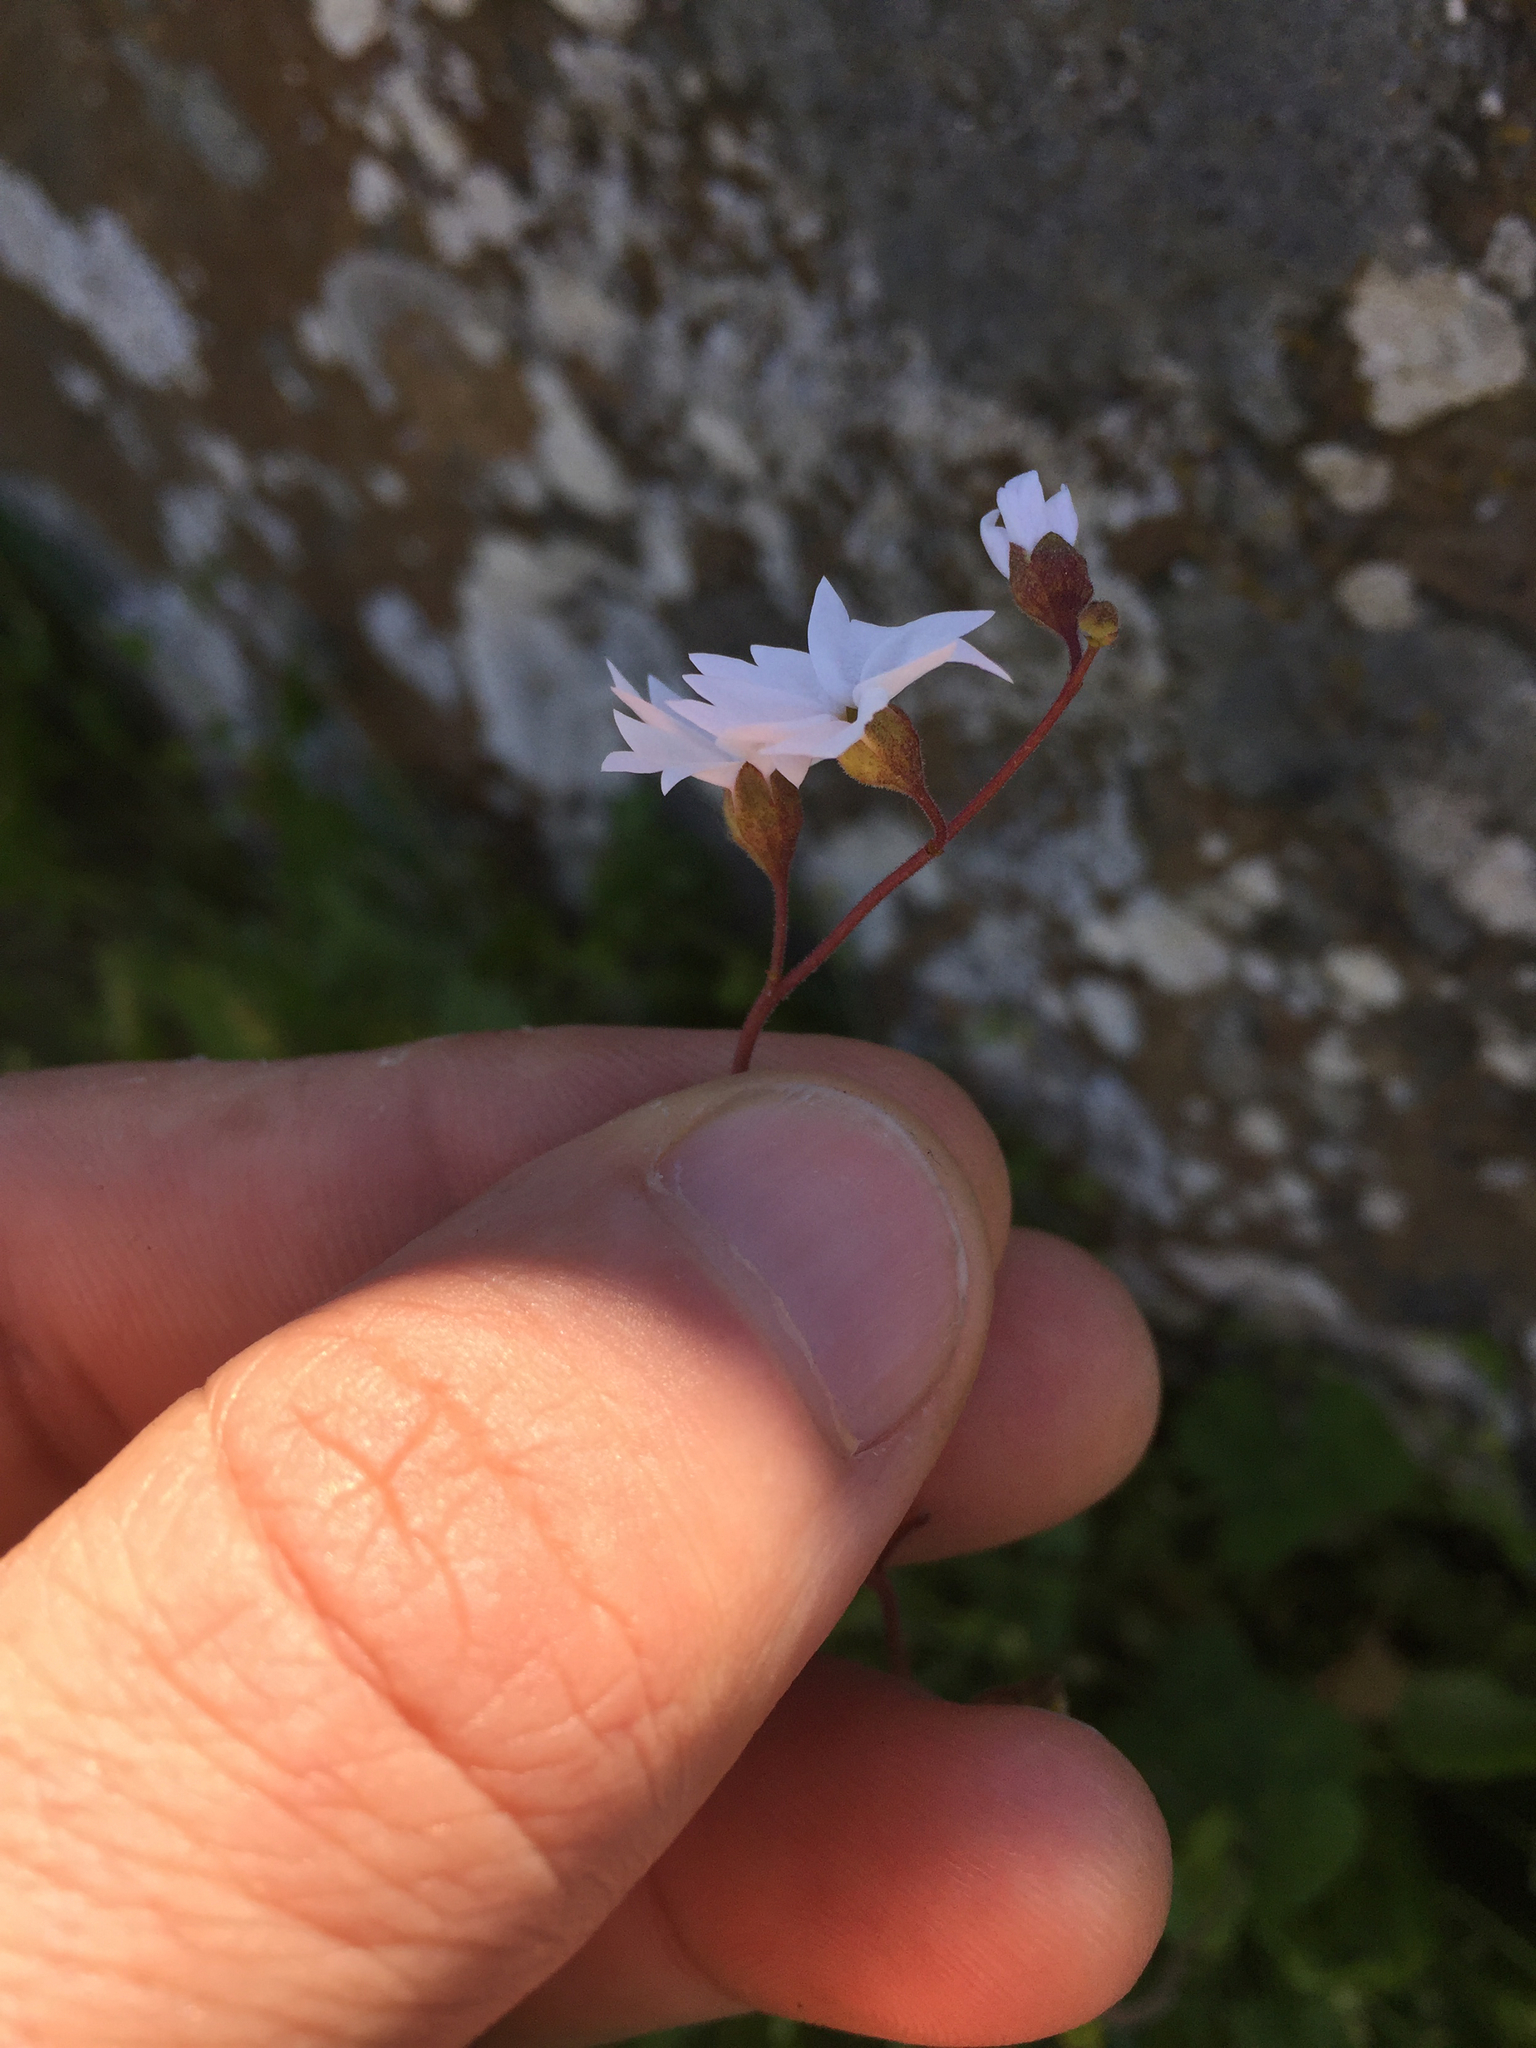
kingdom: Plantae
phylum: Tracheophyta
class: Magnoliopsida
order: Saxifragales
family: Saxifragaceae
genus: Lithophragma
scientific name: Lithophragma affine
